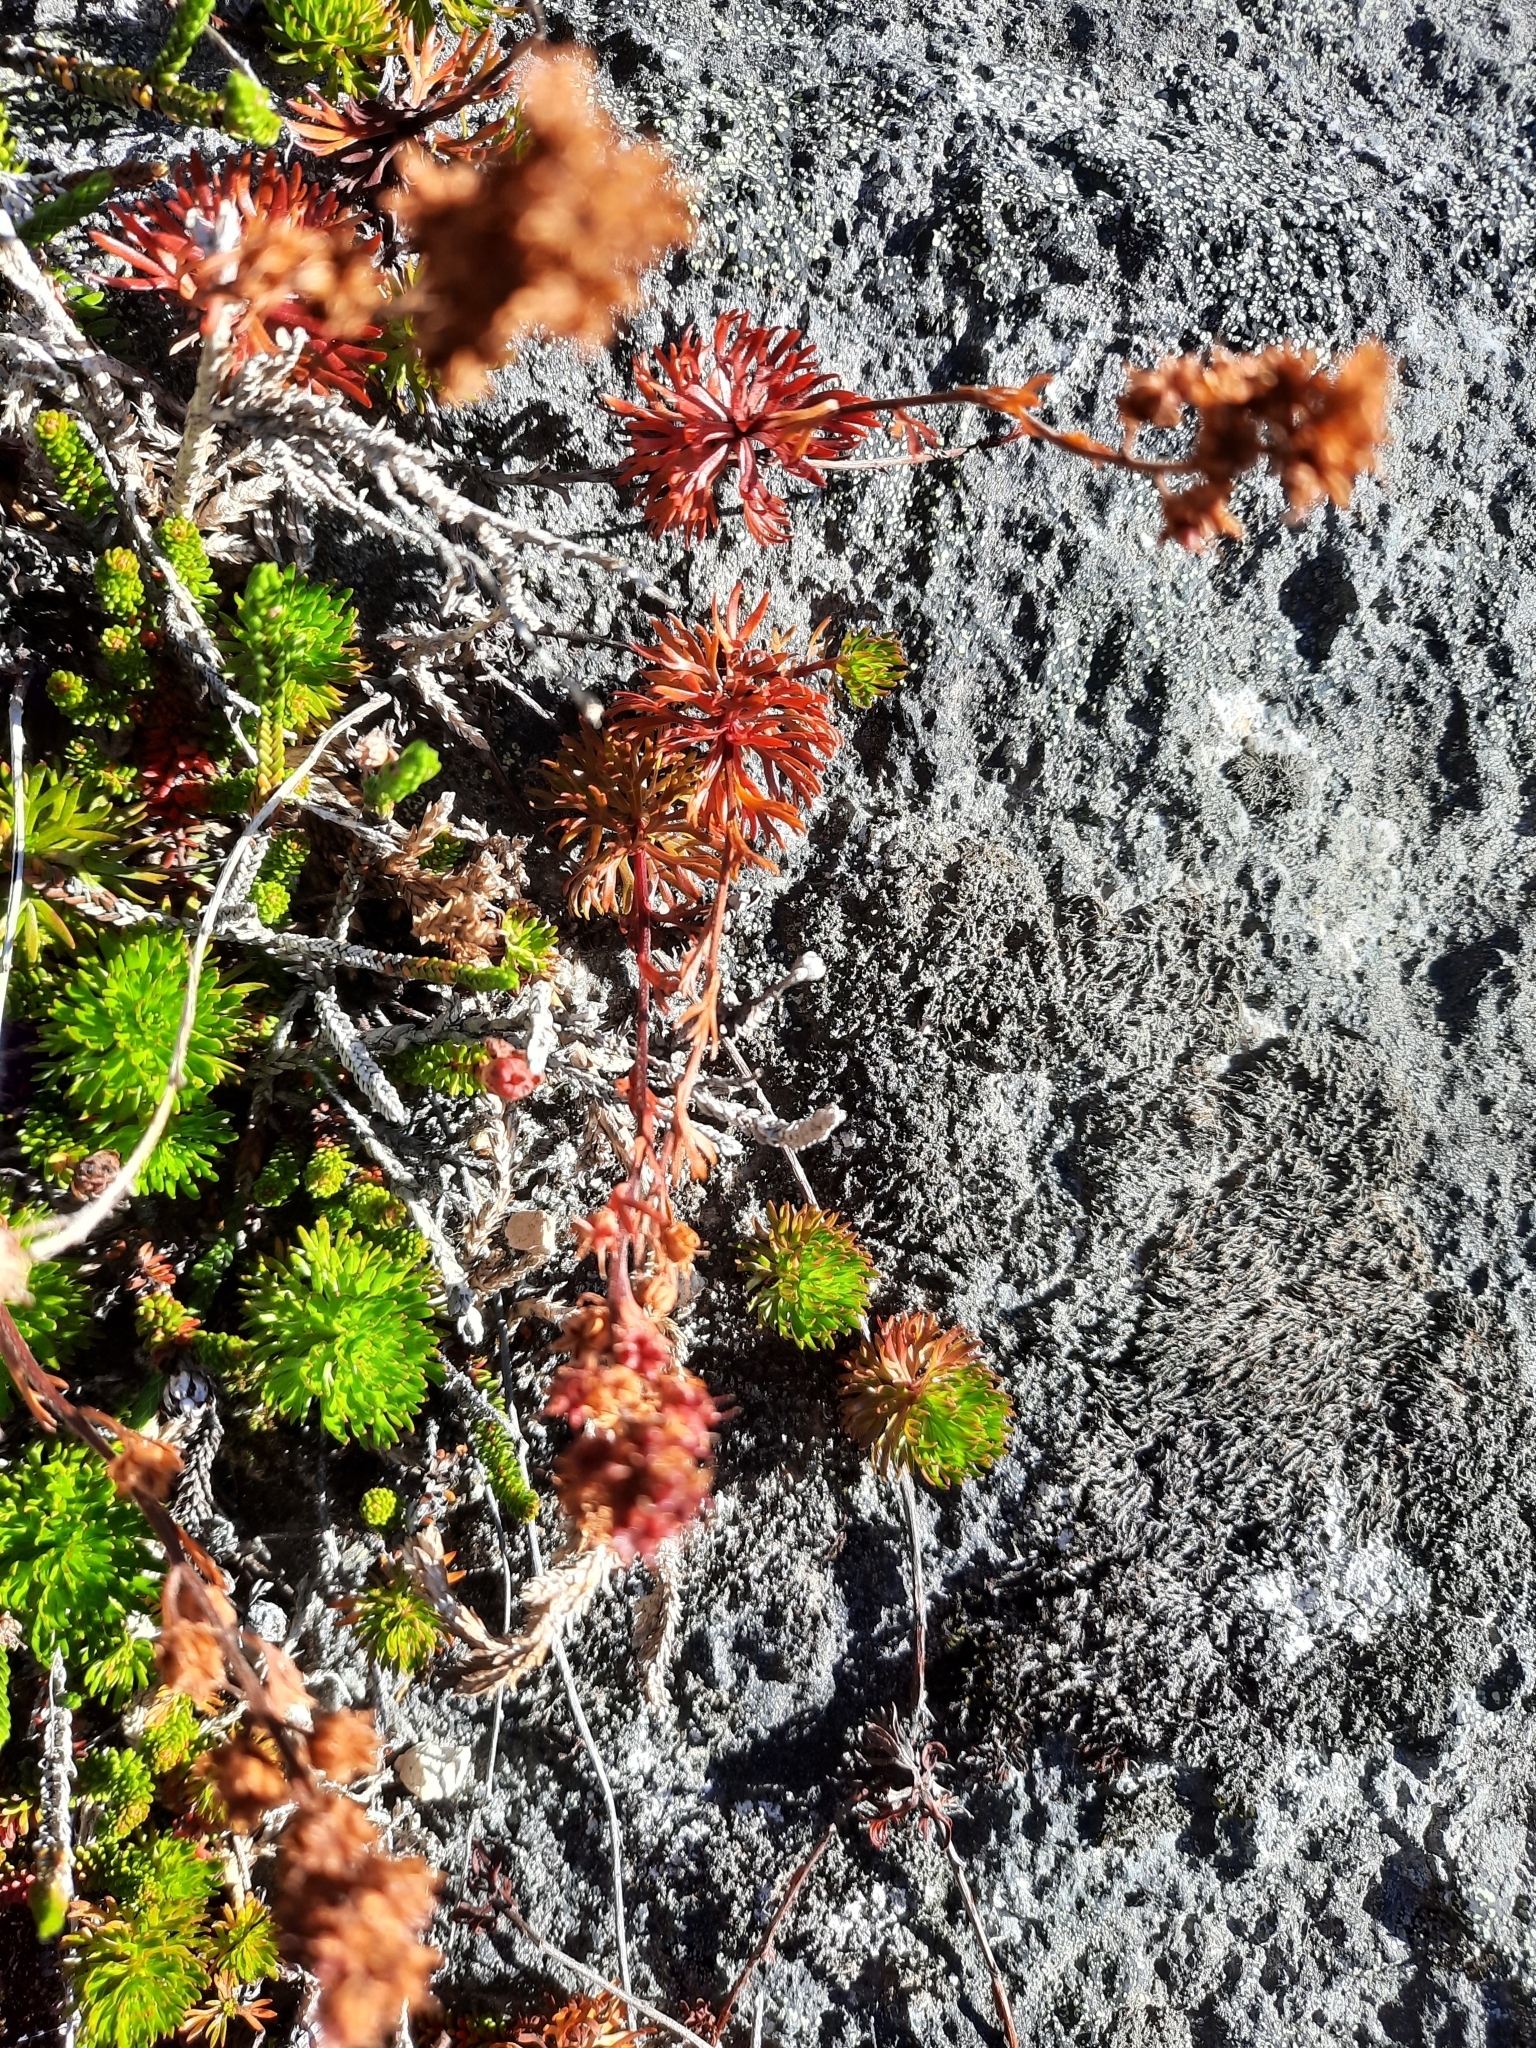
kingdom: Plantae
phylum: Tracheophyta
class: Magnoliopsida
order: Rosales
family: Rosaceae
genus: Luetkea
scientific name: Luetkea pectinata
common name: Partridgefoot
